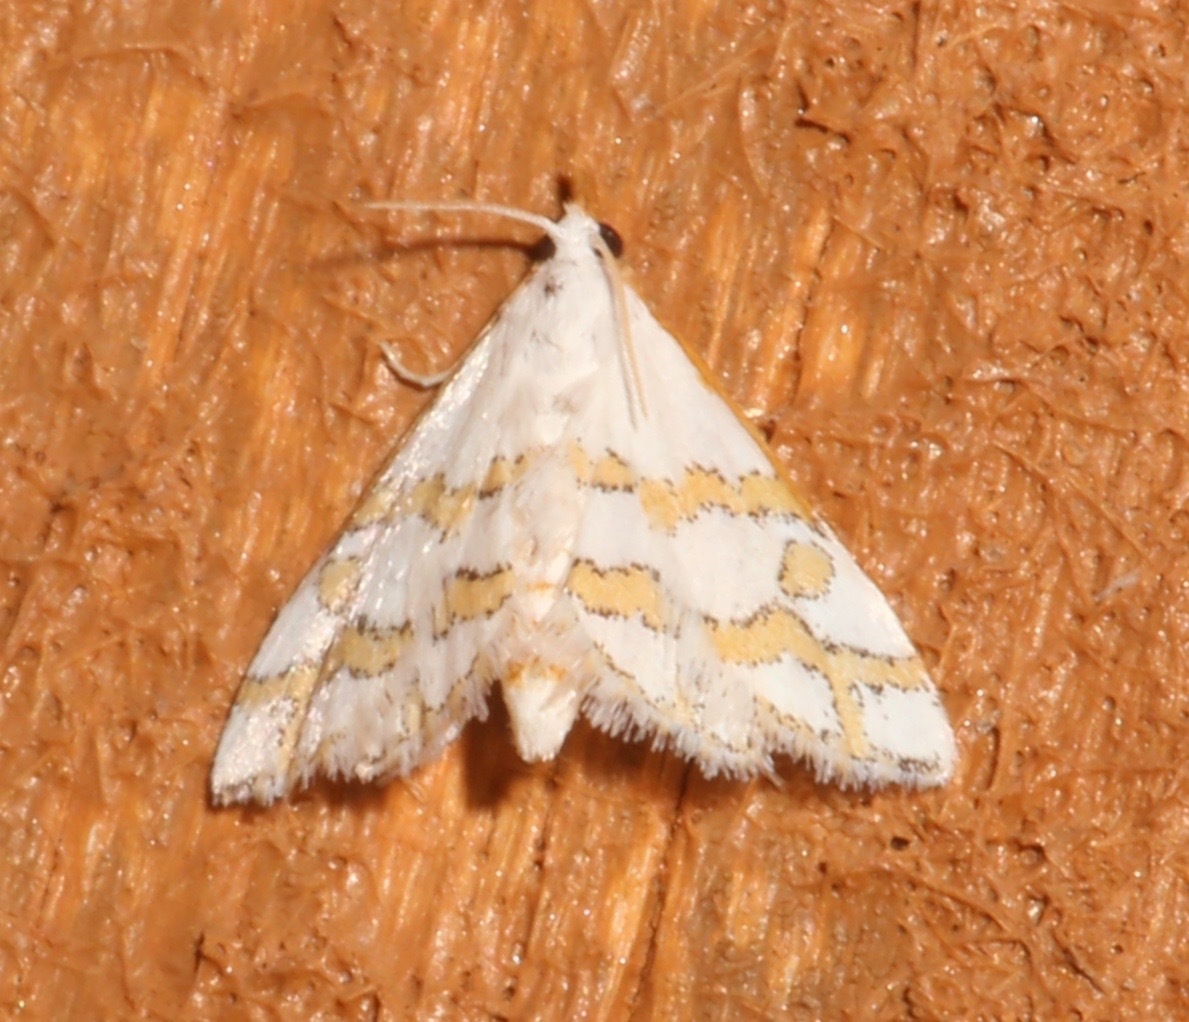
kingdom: Animalia
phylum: Arthropoda
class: Insecta
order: Lepidoptera
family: Crambidae
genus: Leptosteges
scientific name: Leptosteges
